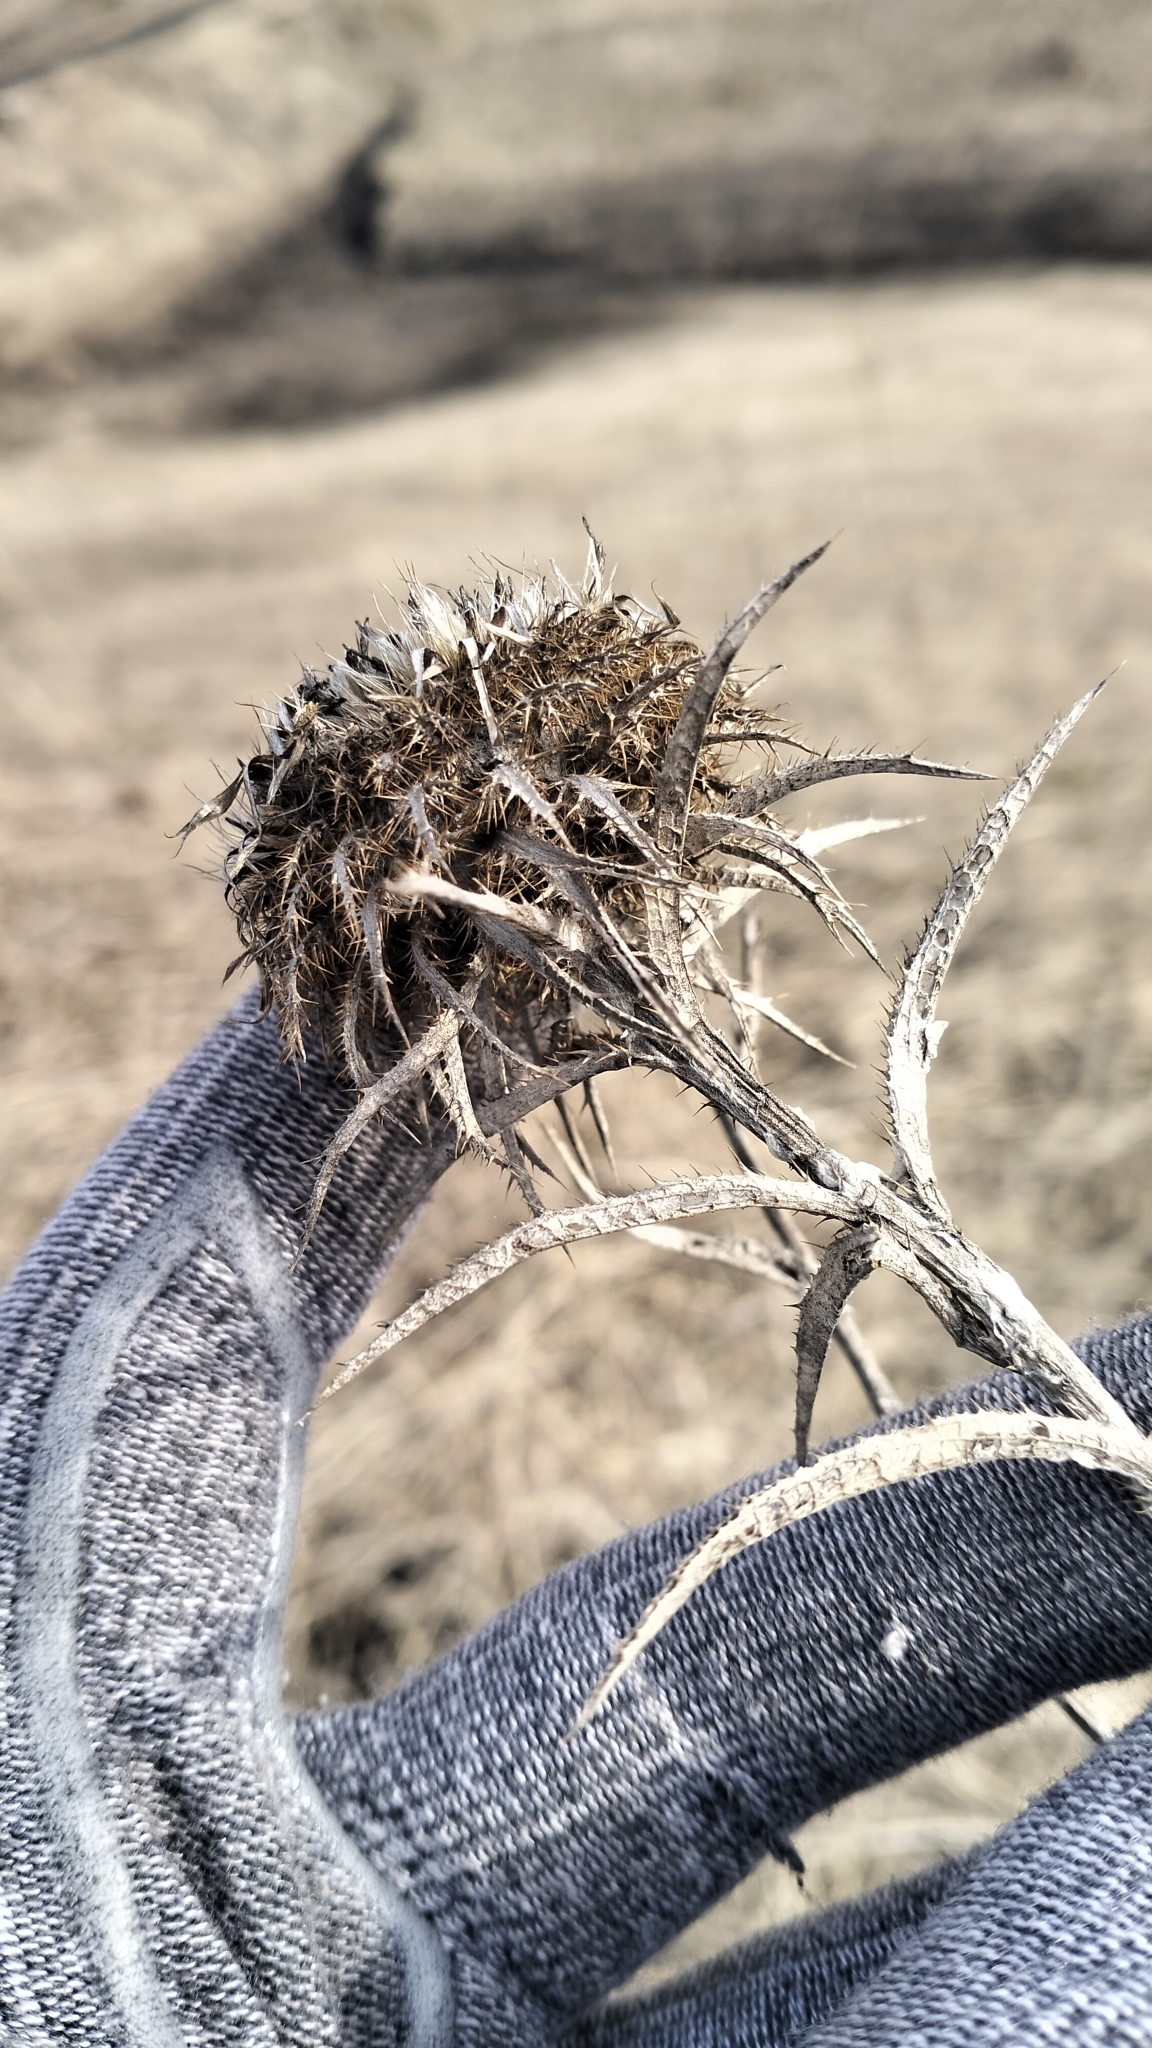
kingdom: Plantae
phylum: Tracheophyta
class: Magnoliopsida
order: Asterales
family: Asteraceae
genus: Carlina
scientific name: Carlina biebersteinii
